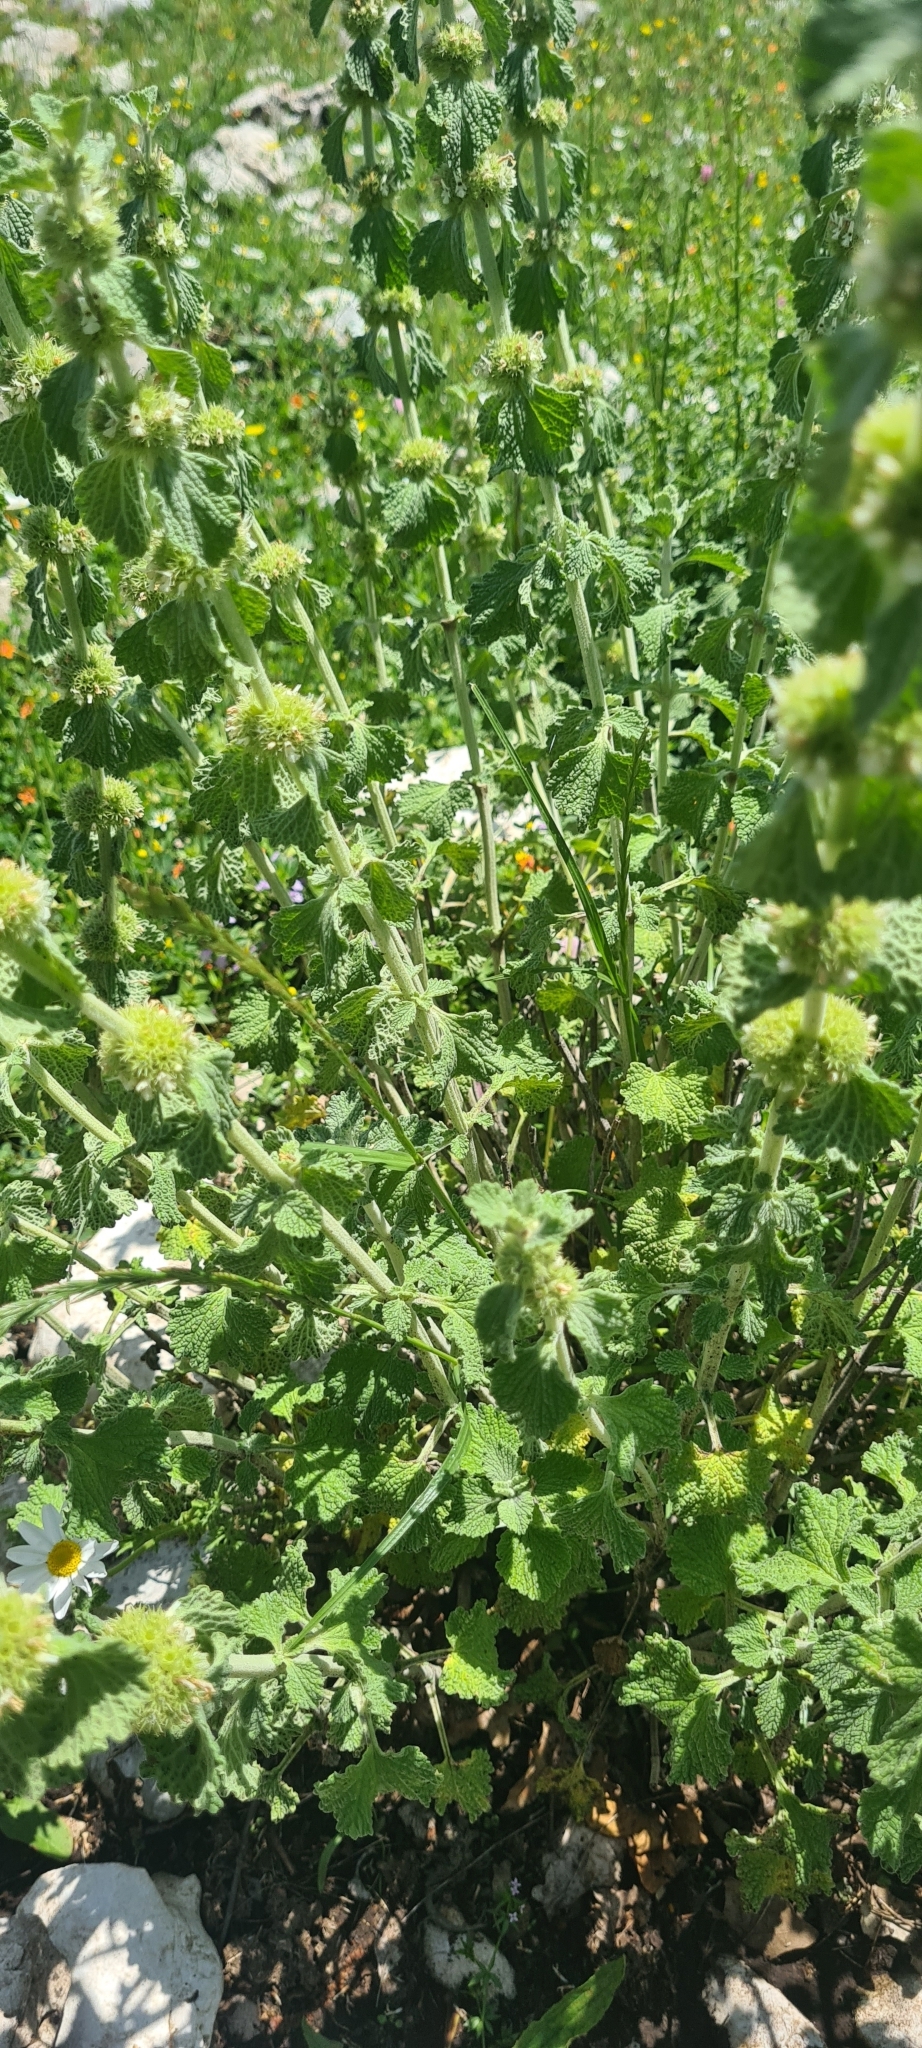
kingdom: Plantae
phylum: Tracheophyta
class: Magnoliopsida
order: Lamiales
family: Lamiaceae
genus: Marrubium
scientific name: Marrubium vulgare
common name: Horehound
